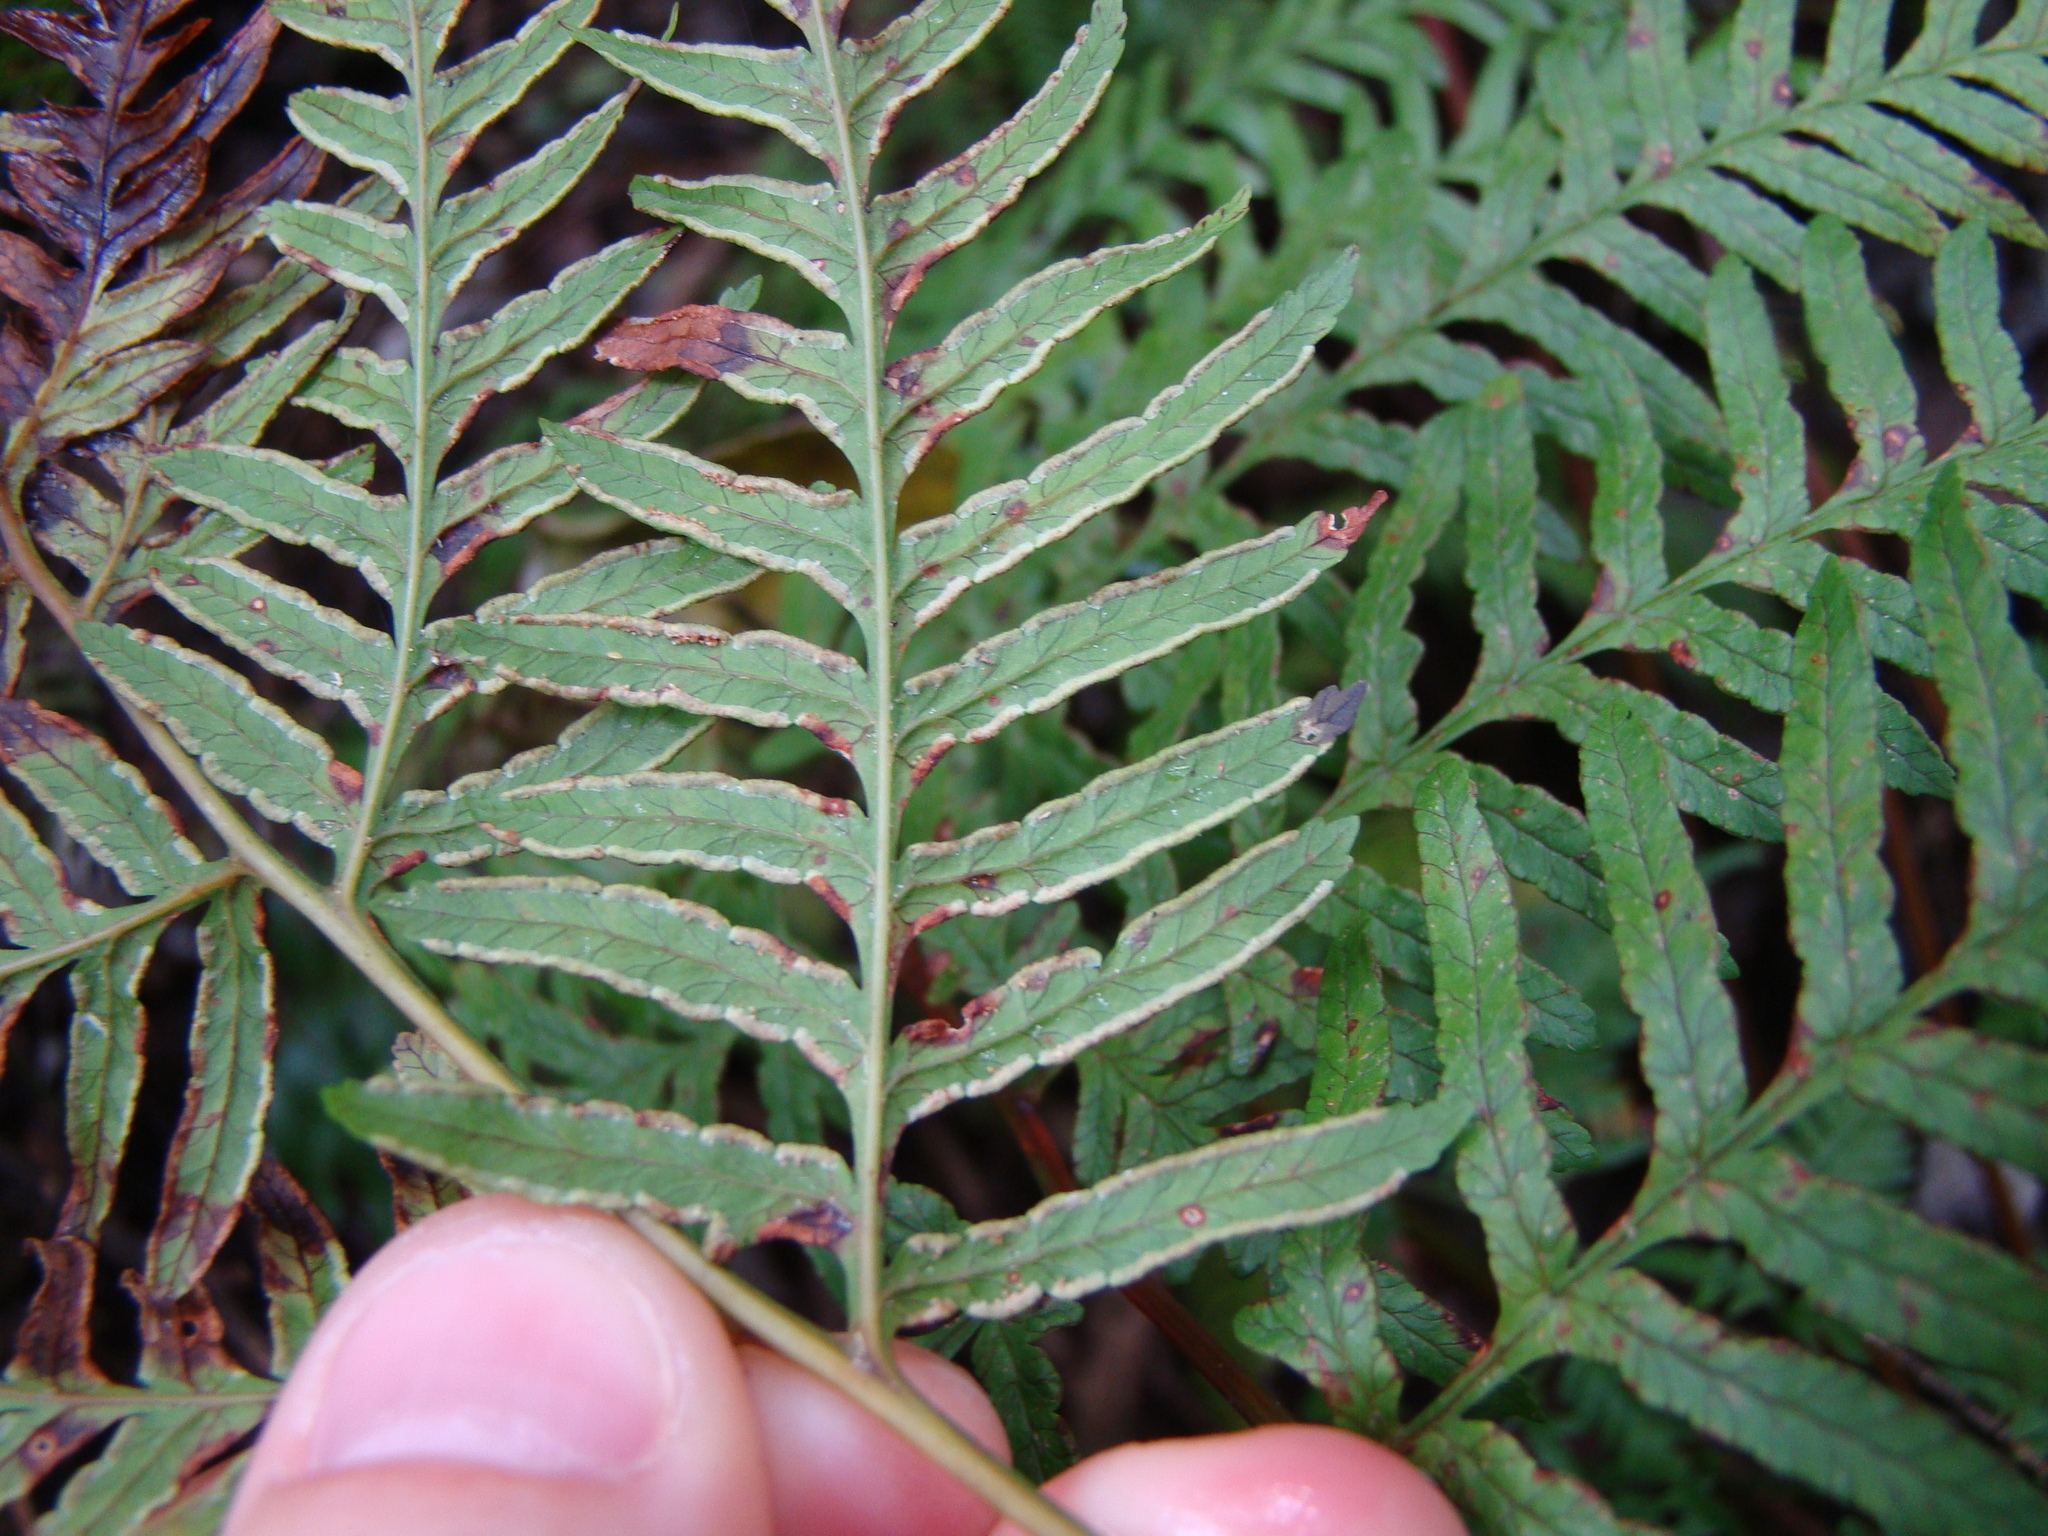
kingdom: Plantae
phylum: Tracheophyta
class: Polypodiopsida
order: Polypodiales
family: Pteridaceae
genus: Pteris
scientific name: Pteris tremula
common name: Australian brake
